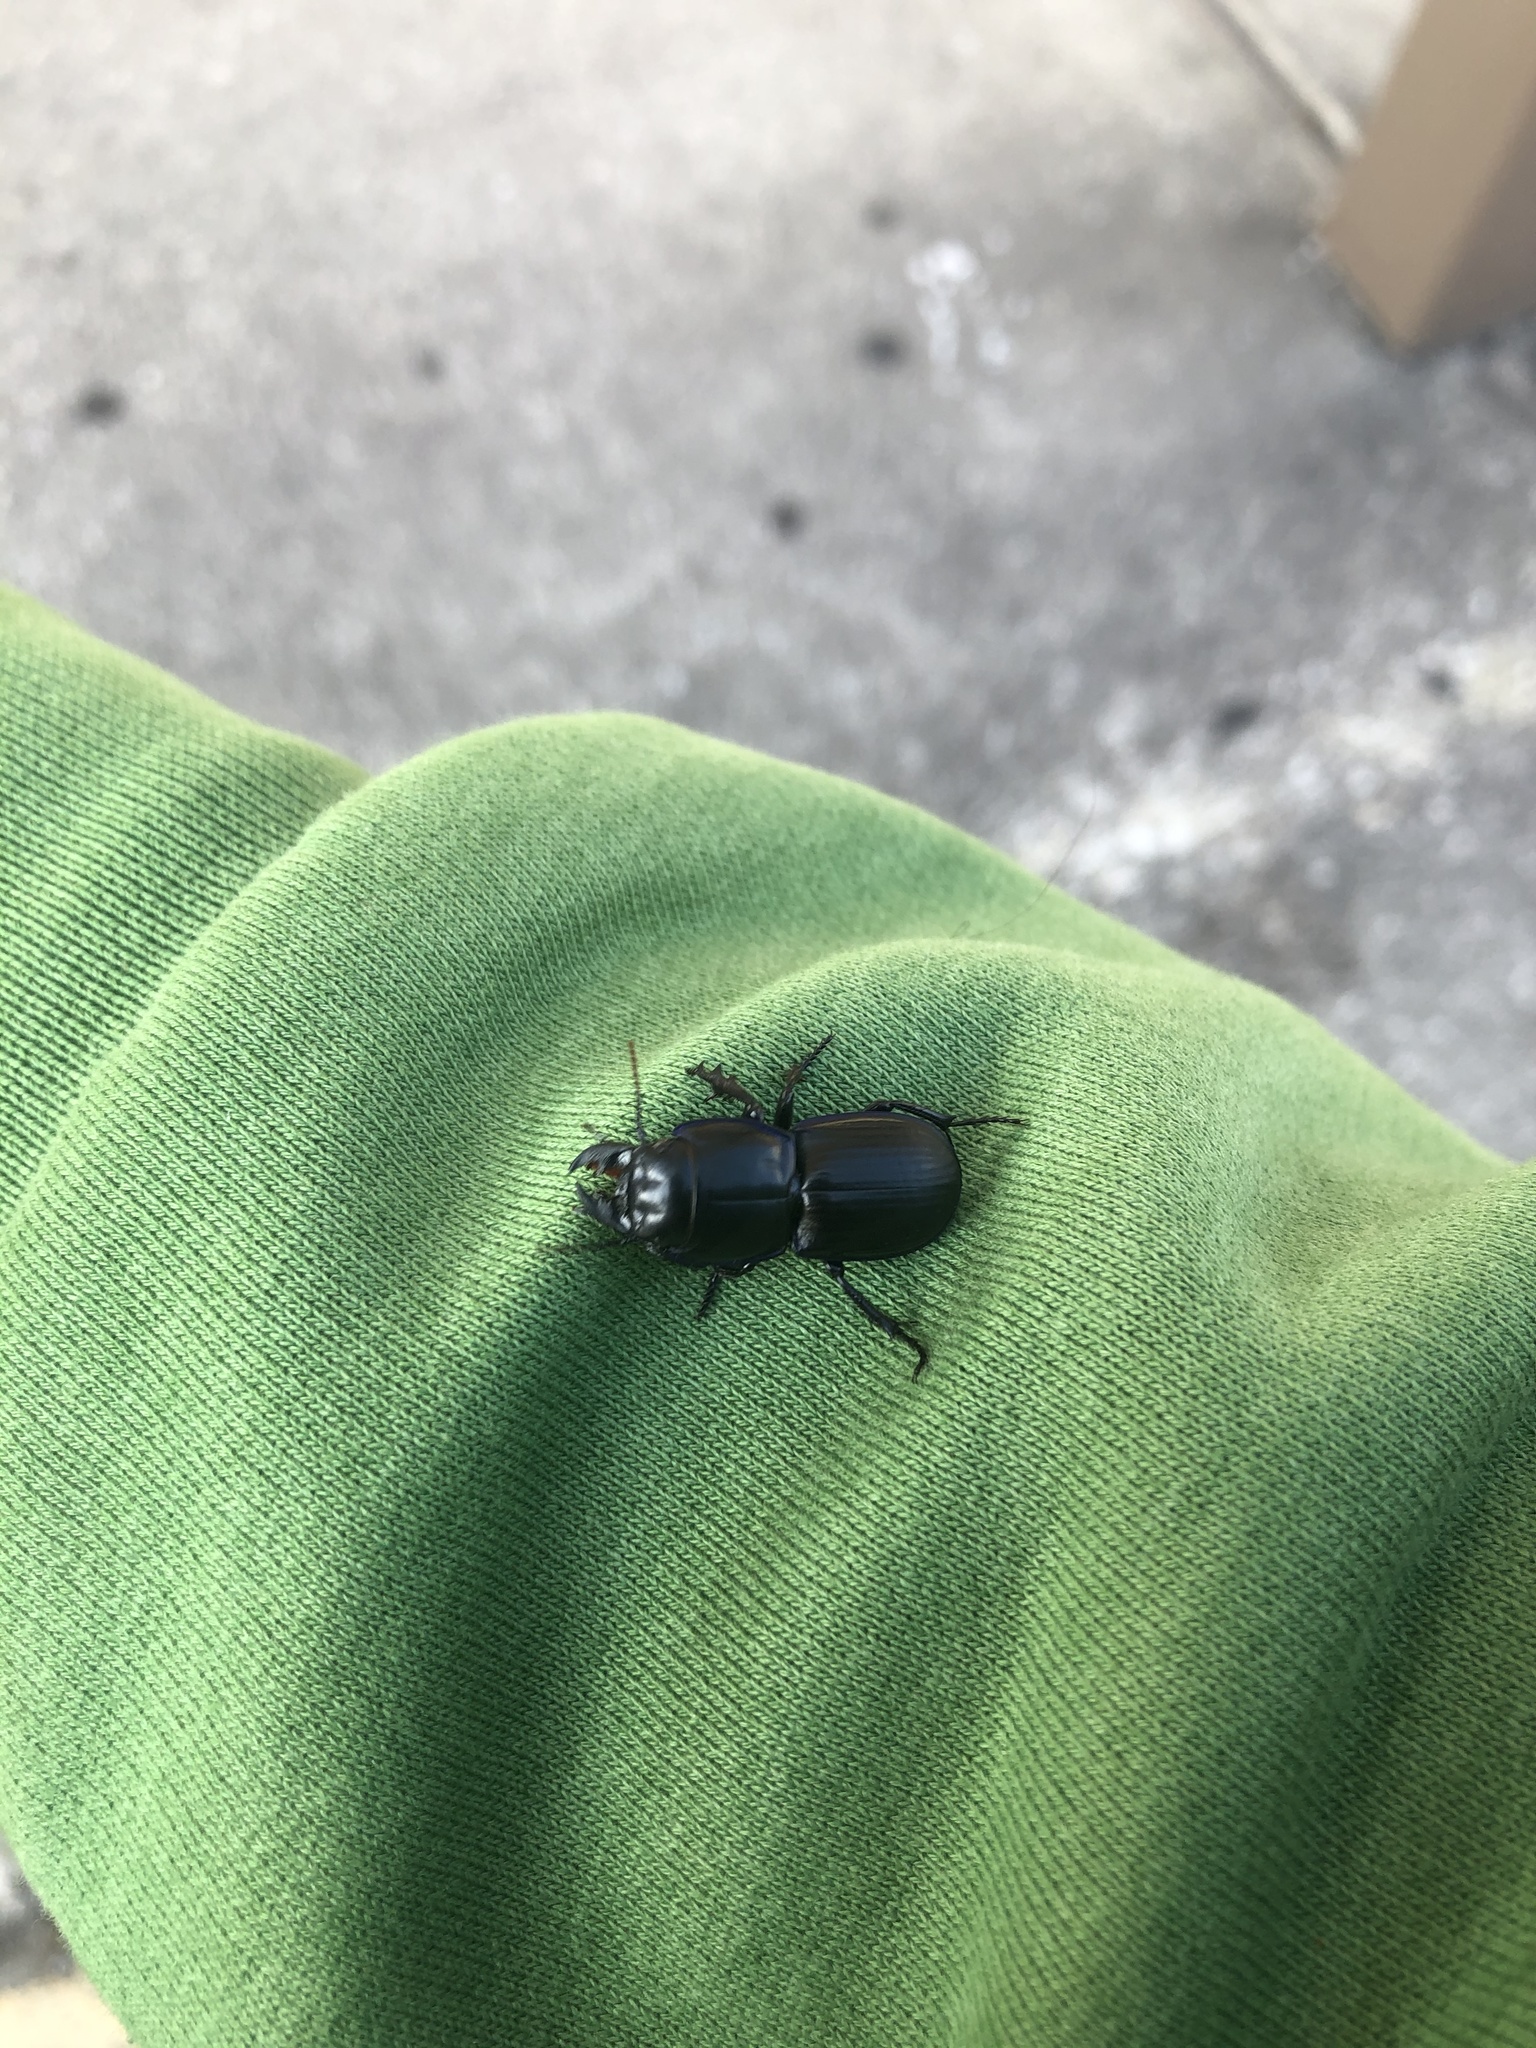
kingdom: Animalia
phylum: Arthropoda
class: Insecta
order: Coleoptera
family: Carabidae
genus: Pasimachus
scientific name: Pasimachus sublaevis
